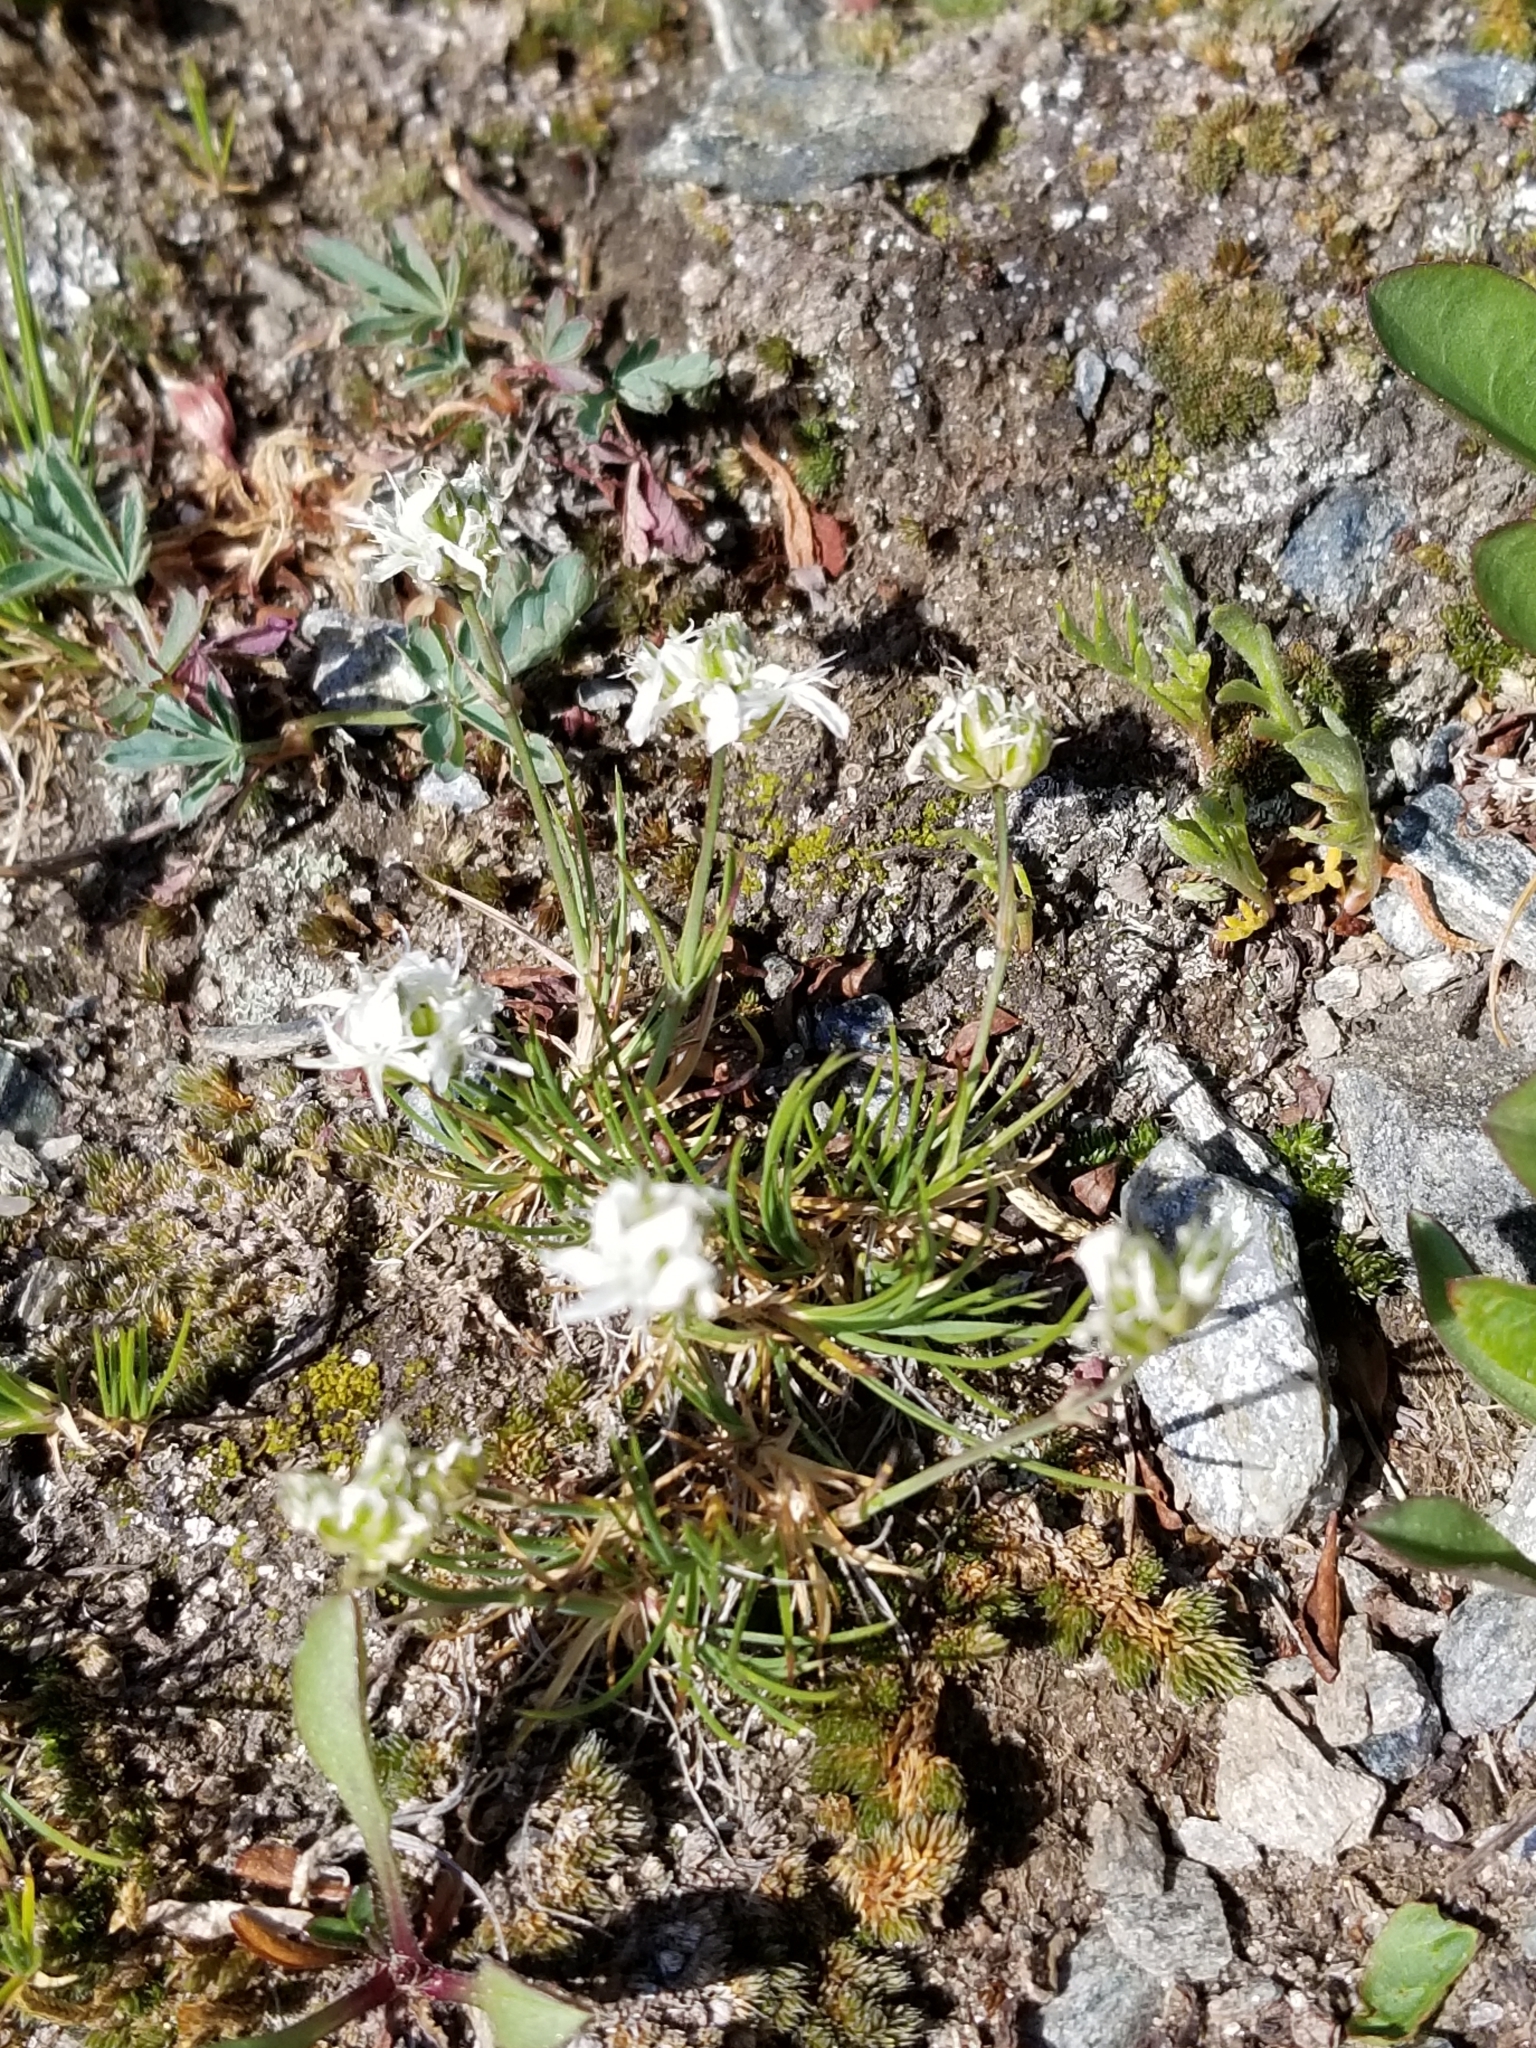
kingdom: Plantae
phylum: Tracheophyta
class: Magnoliopsida
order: Caryophyllales
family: Caryophyllaceae
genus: Eremogone
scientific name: Eremogone congesta
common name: Ballhead sandwort
